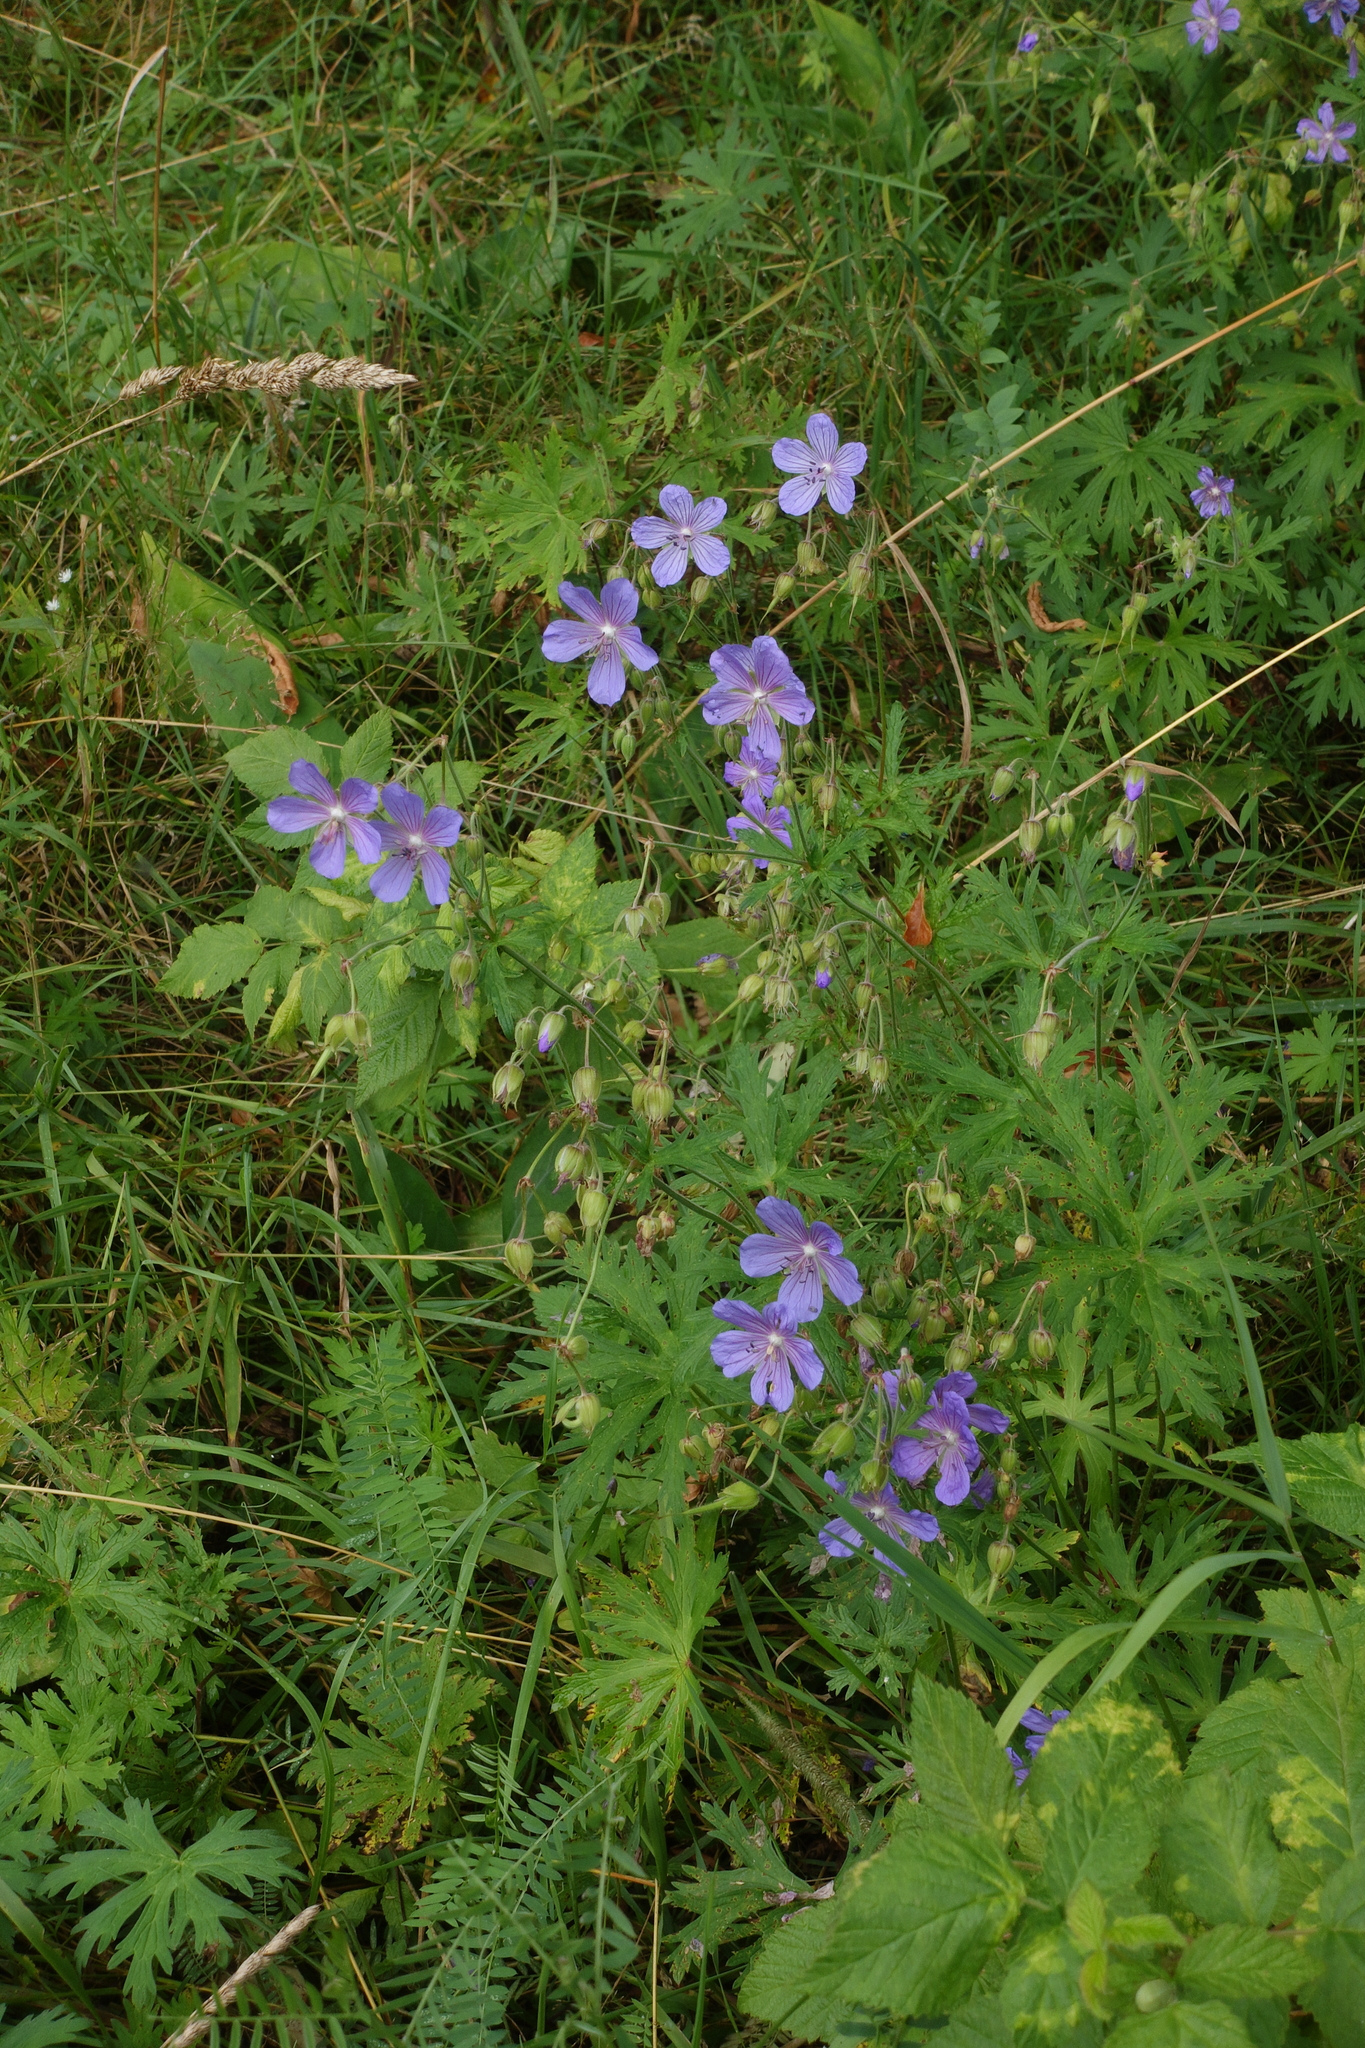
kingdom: Plantae
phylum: Tracheophyta
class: Magnoliopsida
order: Geraniales
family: Geraniaceae
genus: Geranium
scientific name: Geranium pratense
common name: Meadow crane's-bill
